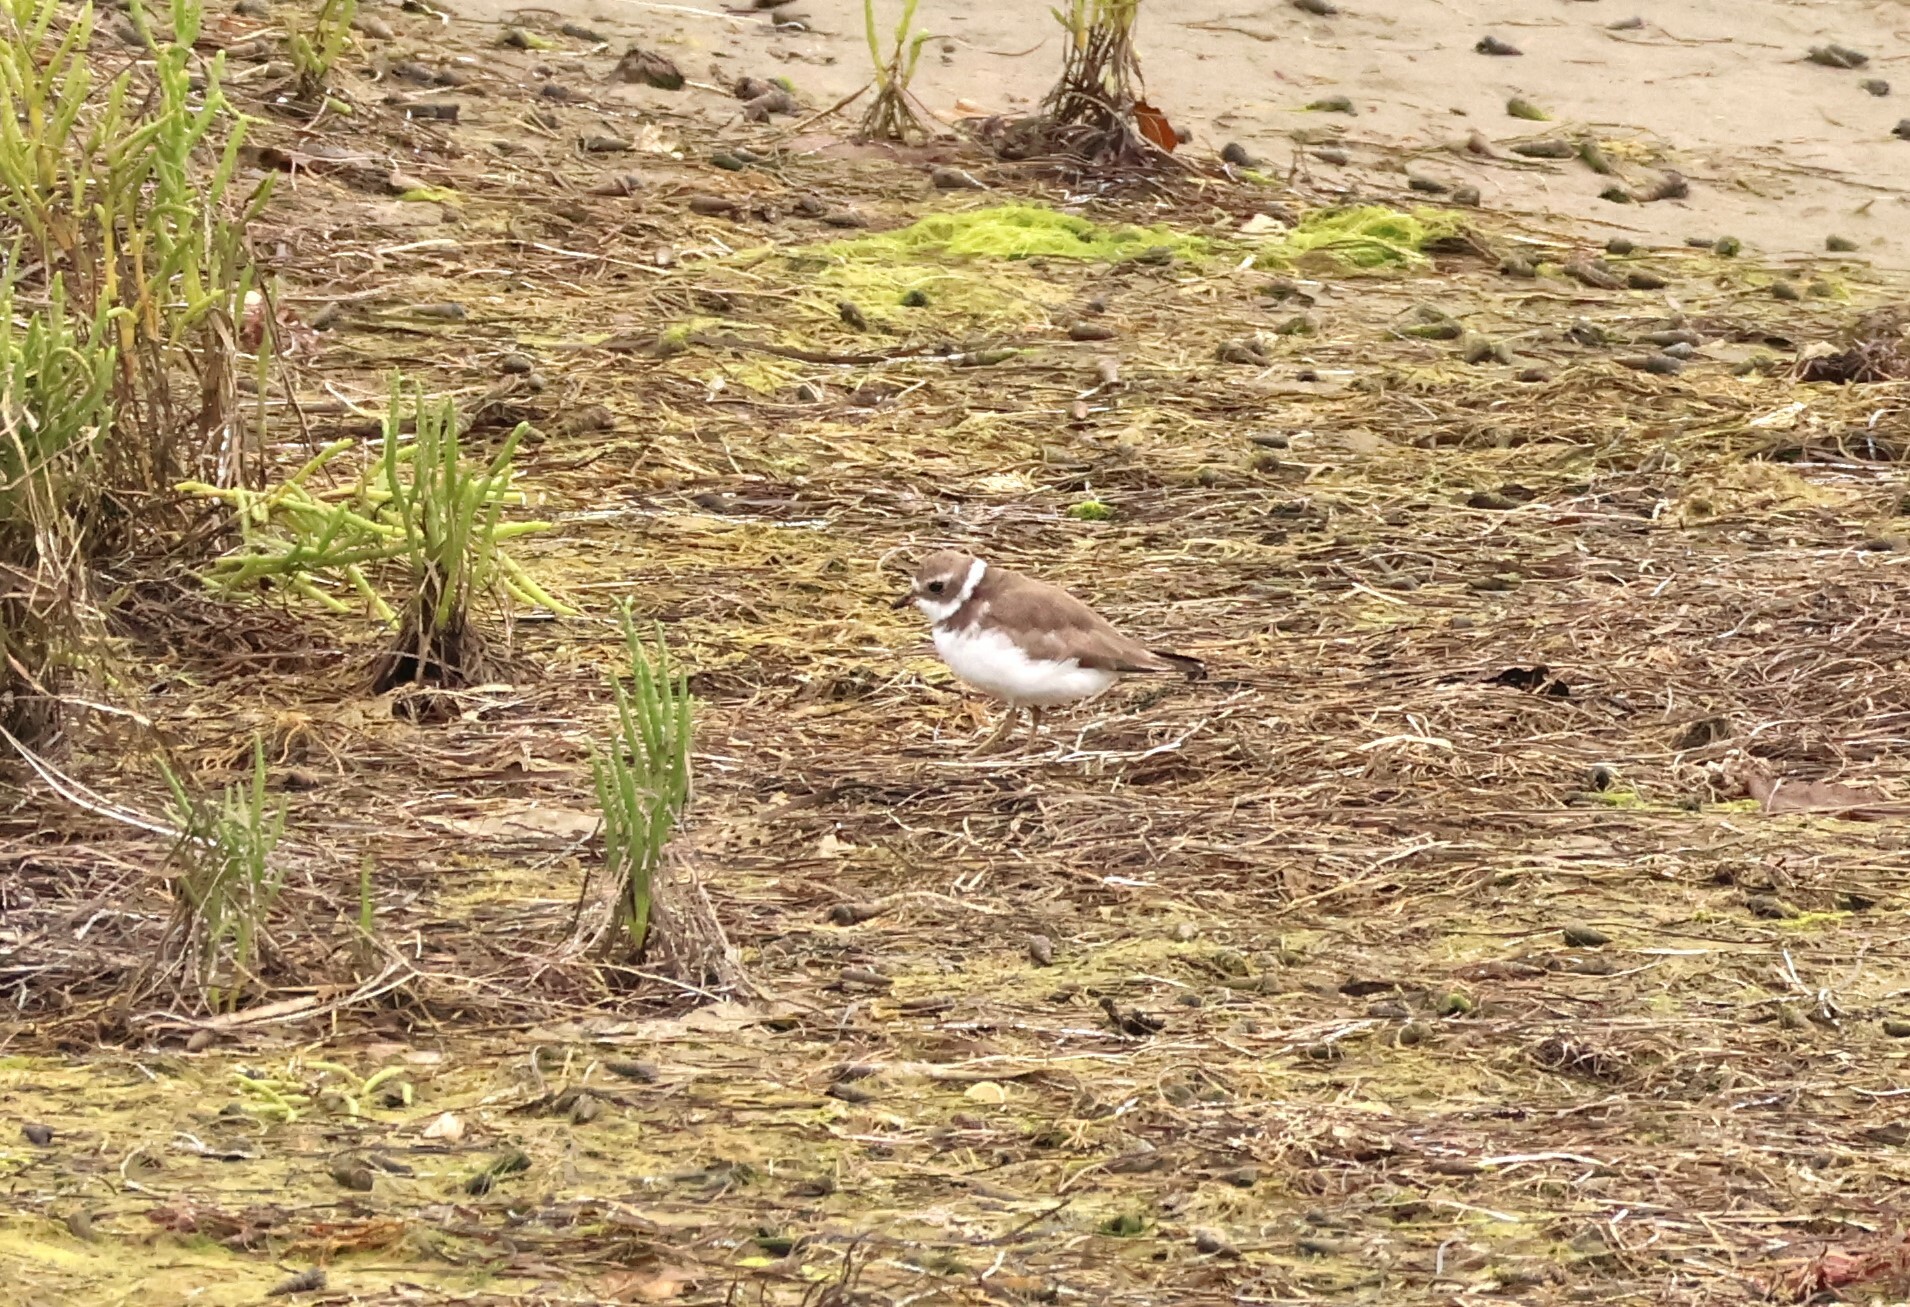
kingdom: Animalia
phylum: Chordata
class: Aves
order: Charadriiformes
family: Charadriidae
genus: Charadrius
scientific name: Charadrius semipalmatus
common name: Semipalmated plover
